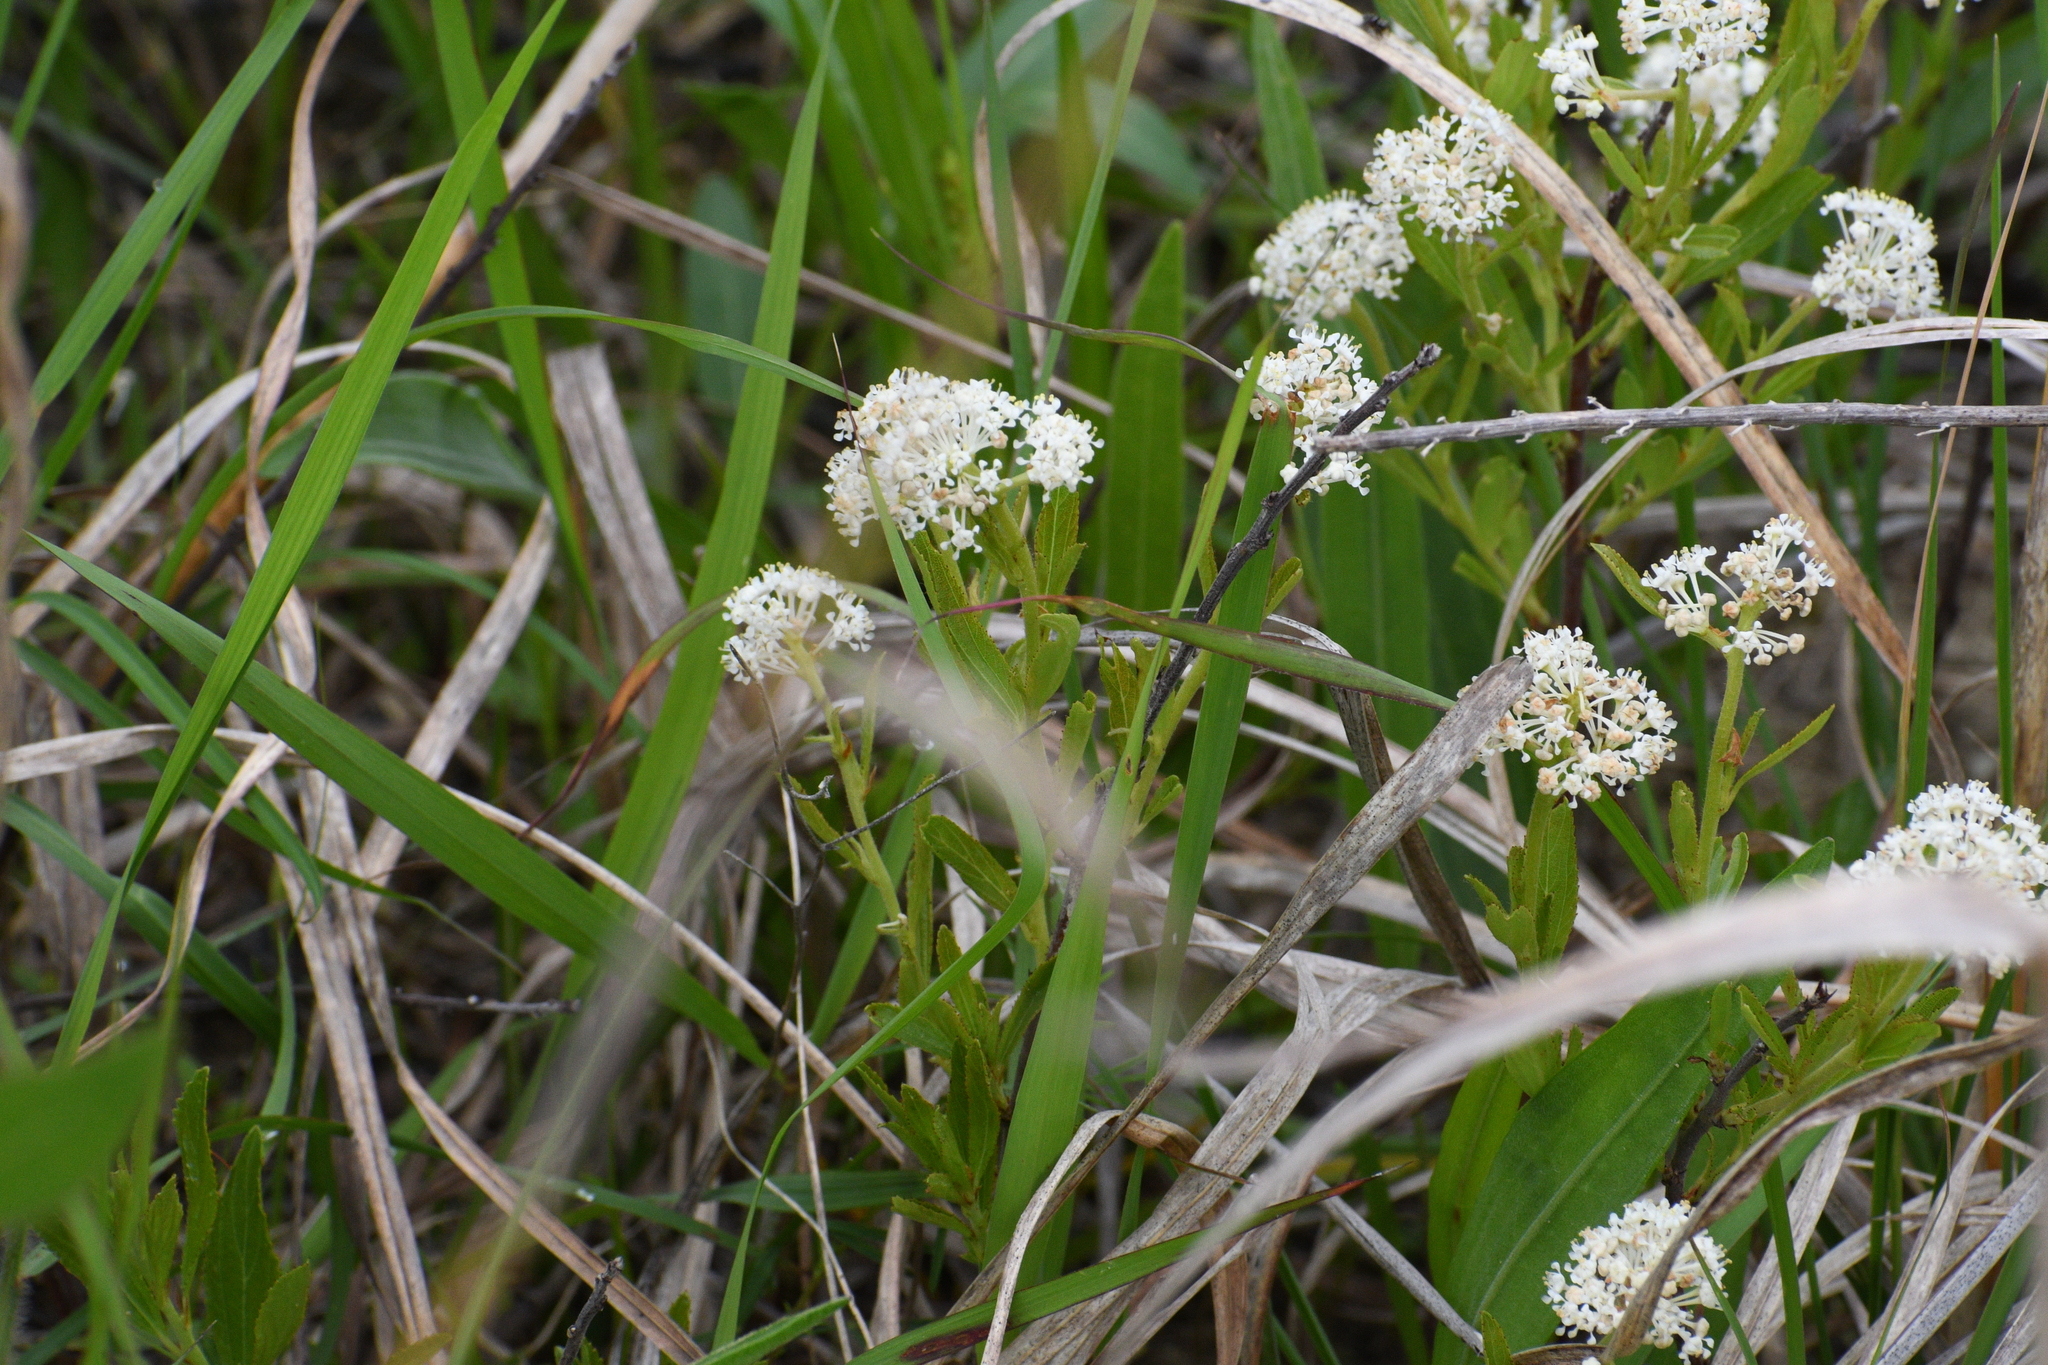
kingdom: Plantae
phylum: Tracheophyta
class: Magnoliopsida
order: Rosales
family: Rhamnaceae
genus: Ceanothus
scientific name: Ceanothus americanus
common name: Redroot
